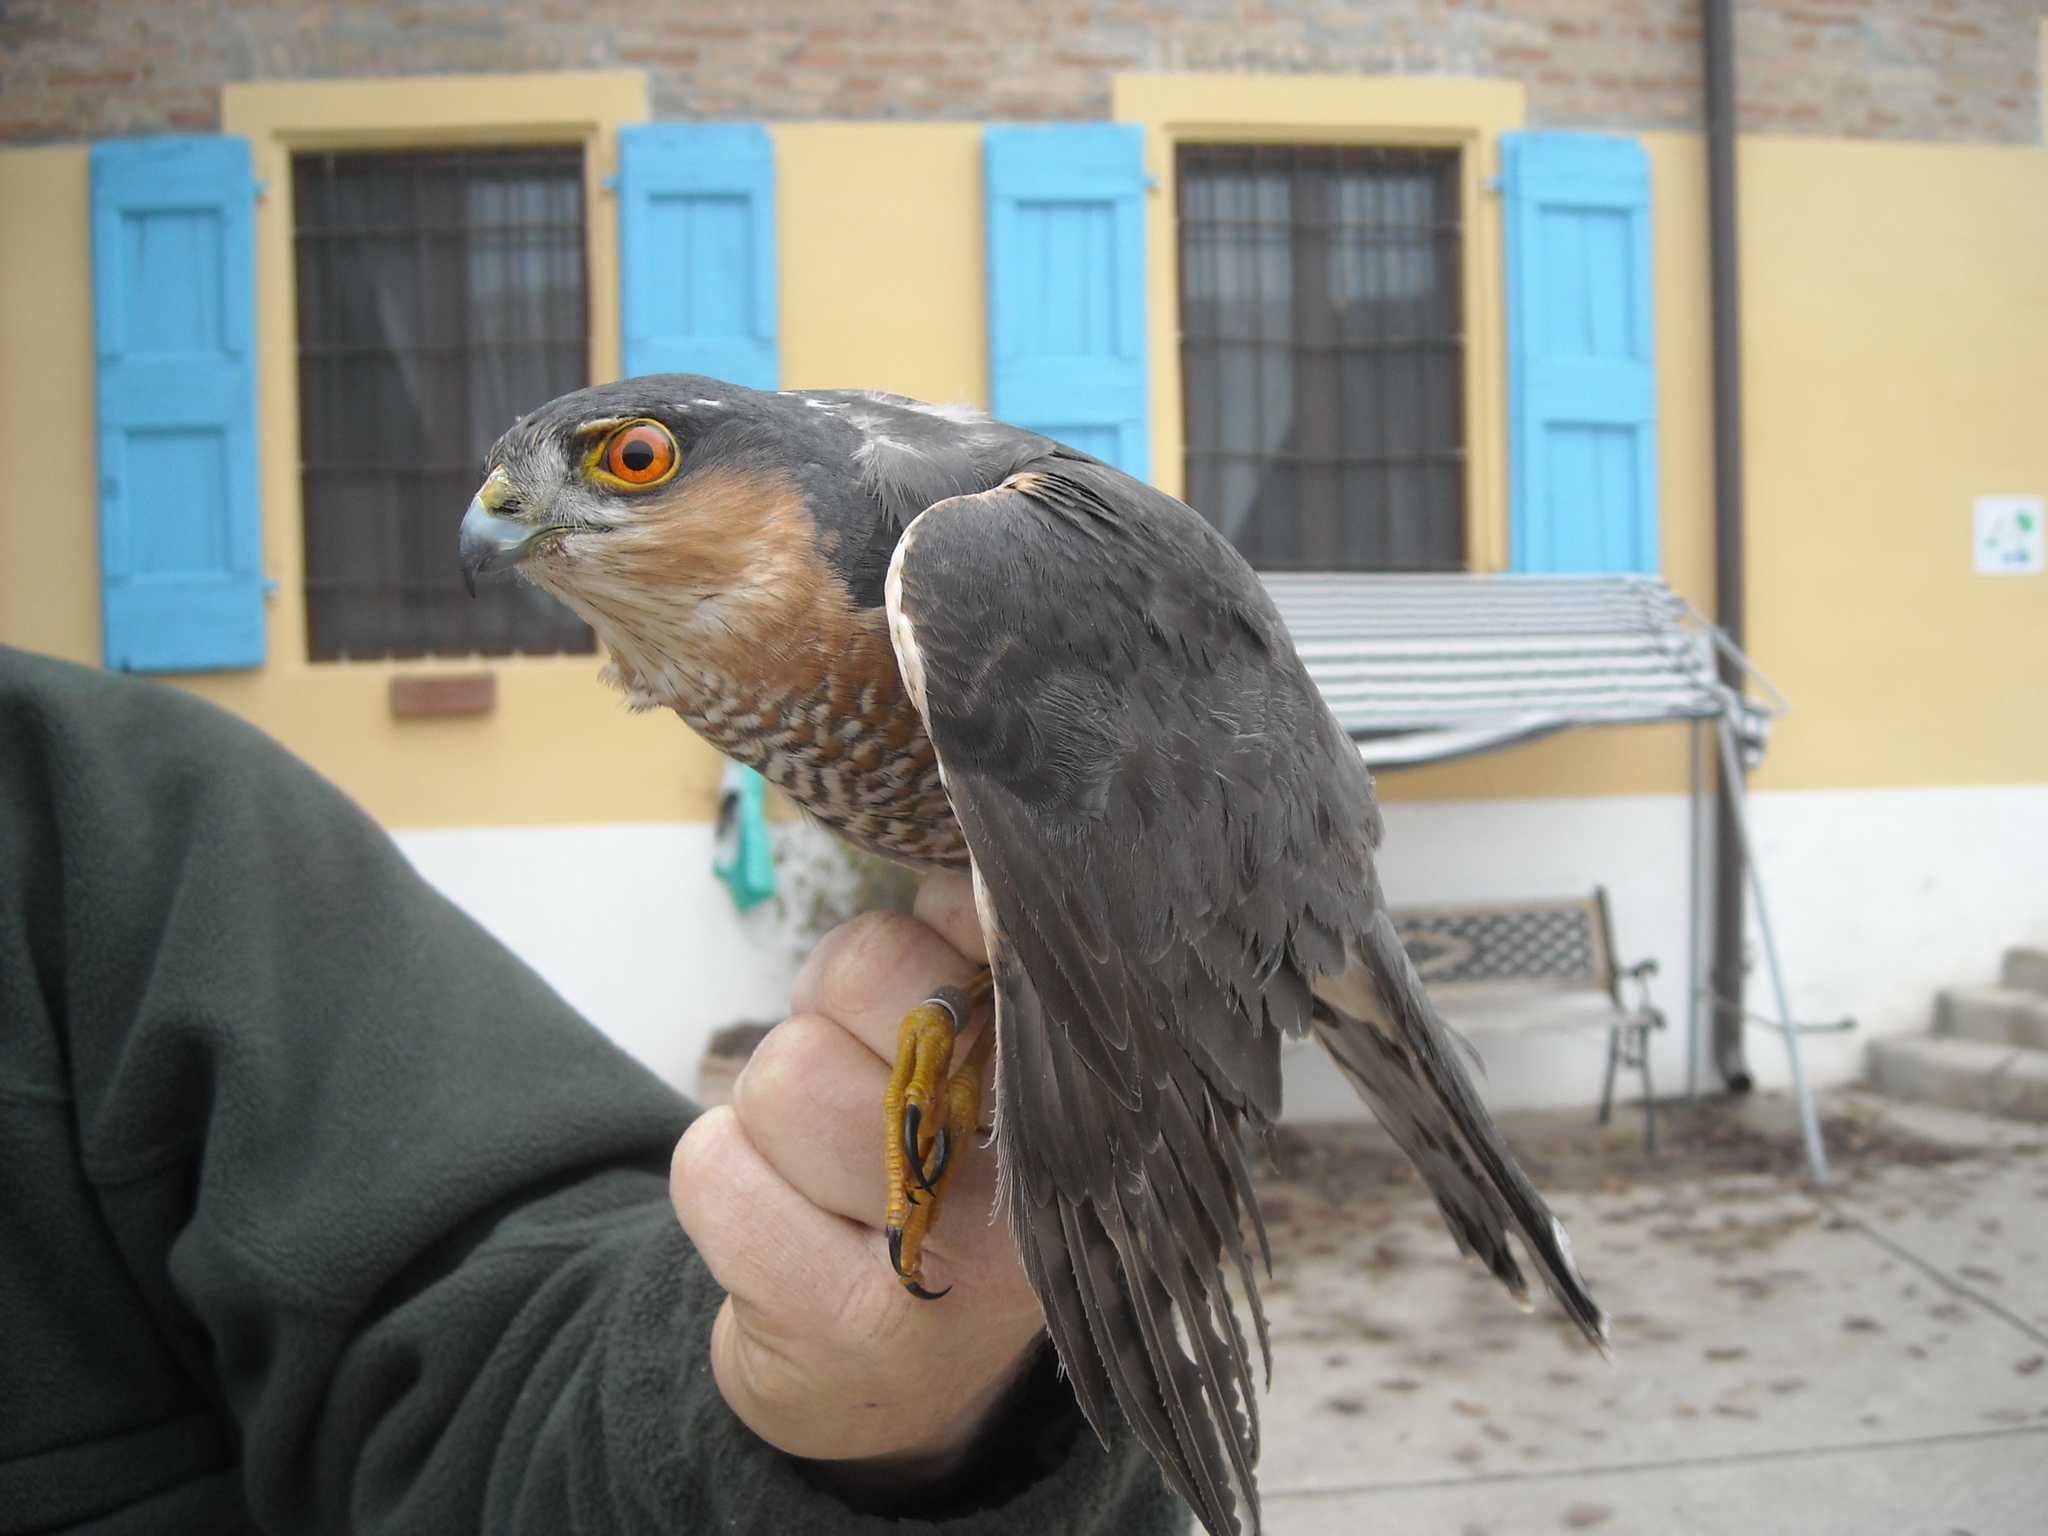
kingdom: Animalia
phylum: Chordata
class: Aves
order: Accipitriformes
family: Accipitridae
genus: Accipiter
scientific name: Accipiter nisus
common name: Eurasian sparrowhawk
